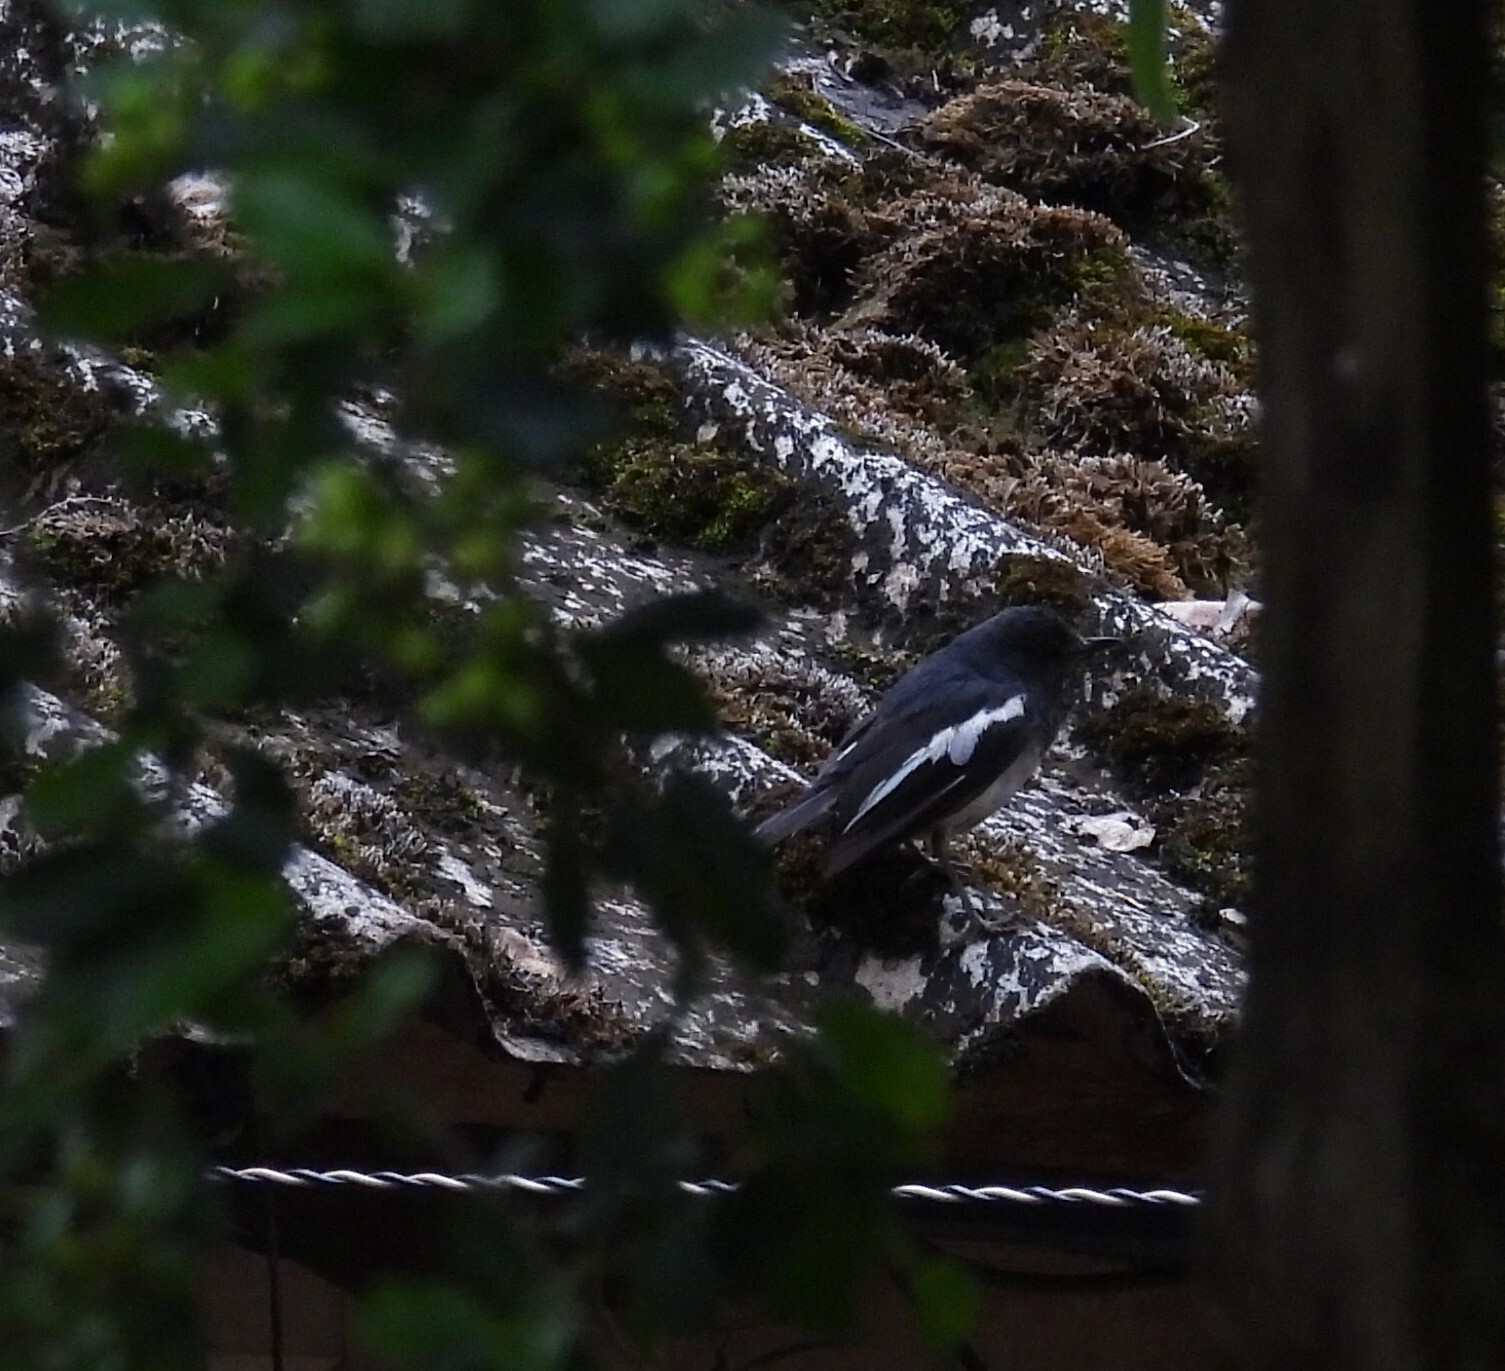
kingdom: Animalia
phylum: Chordata
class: Aves
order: Passeriformes
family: Muscicapidae
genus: Copsychus
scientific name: Copsychus saularis
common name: Oriental magpie-robin
